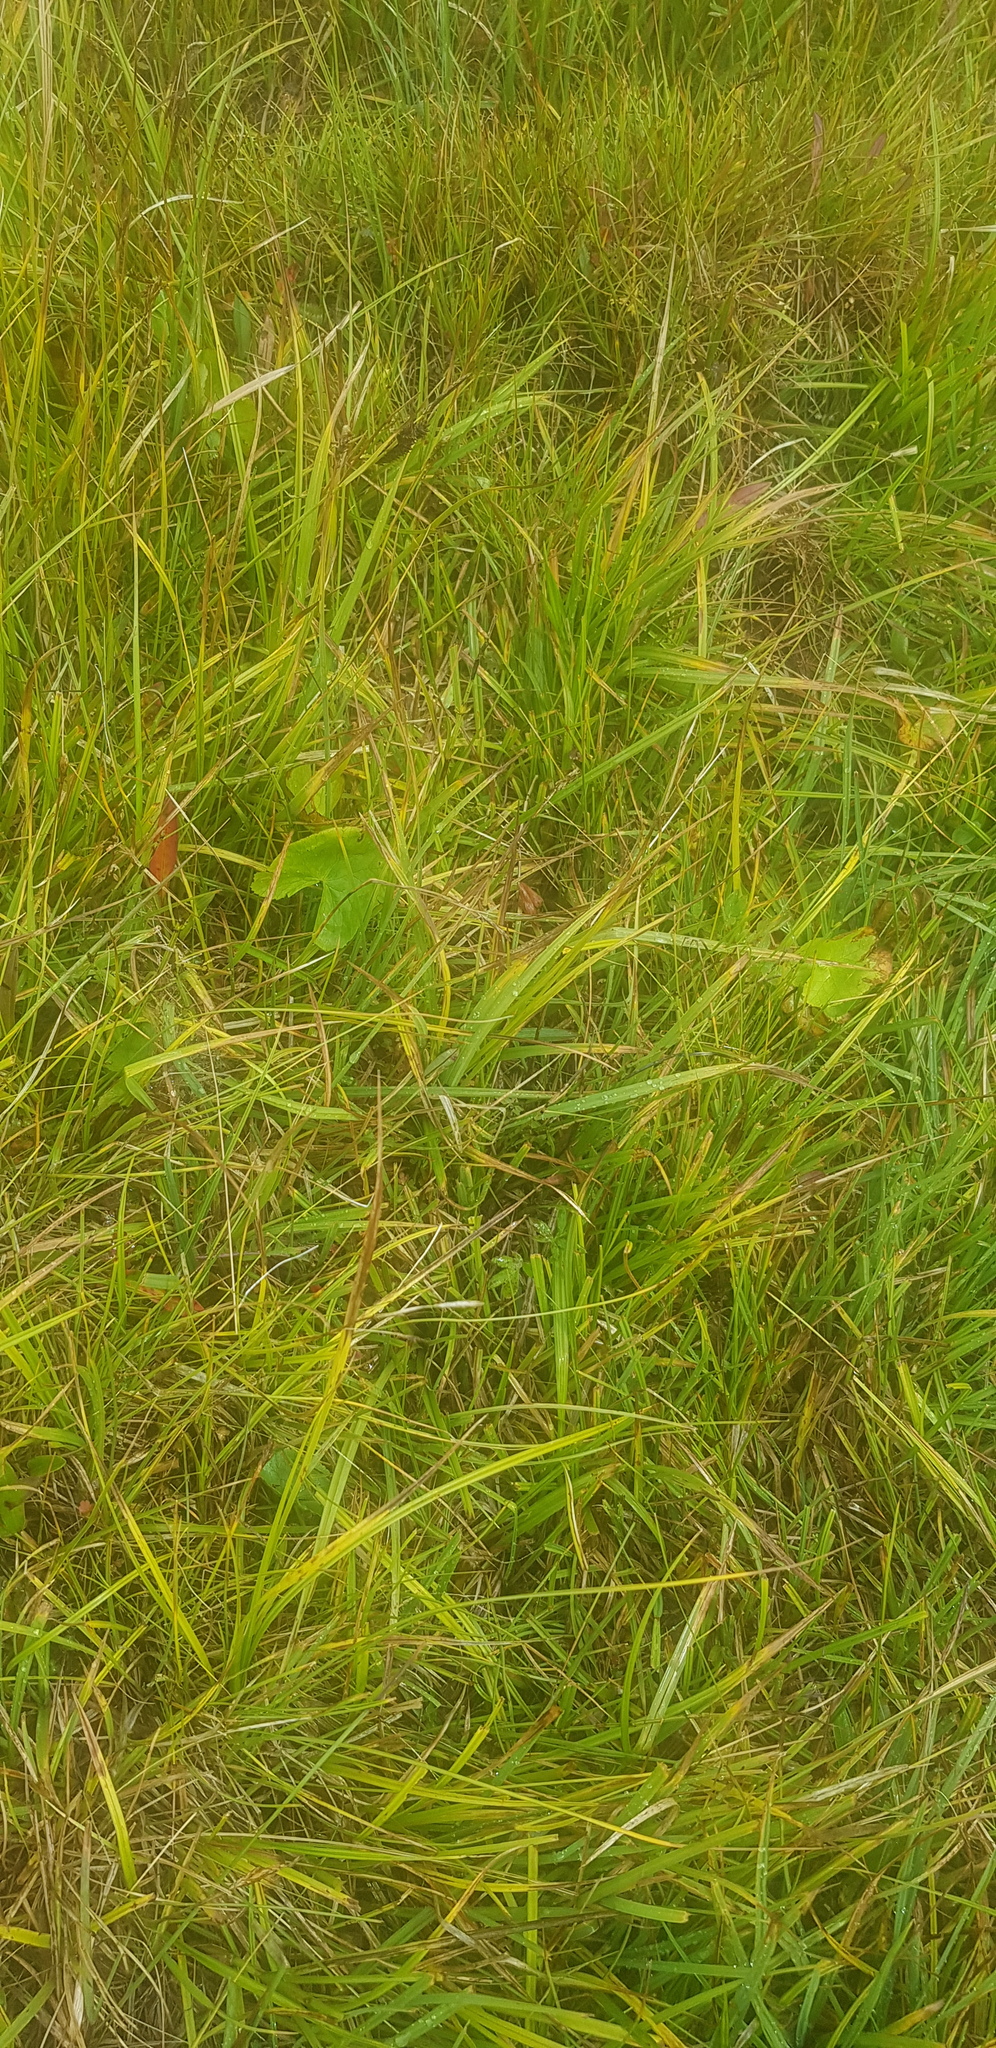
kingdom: Plantae
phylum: Tracheophyta
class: Liliopsida
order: Poales
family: Cyperaceae
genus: Carex
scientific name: Carex microglochin
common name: Bristle sedge
